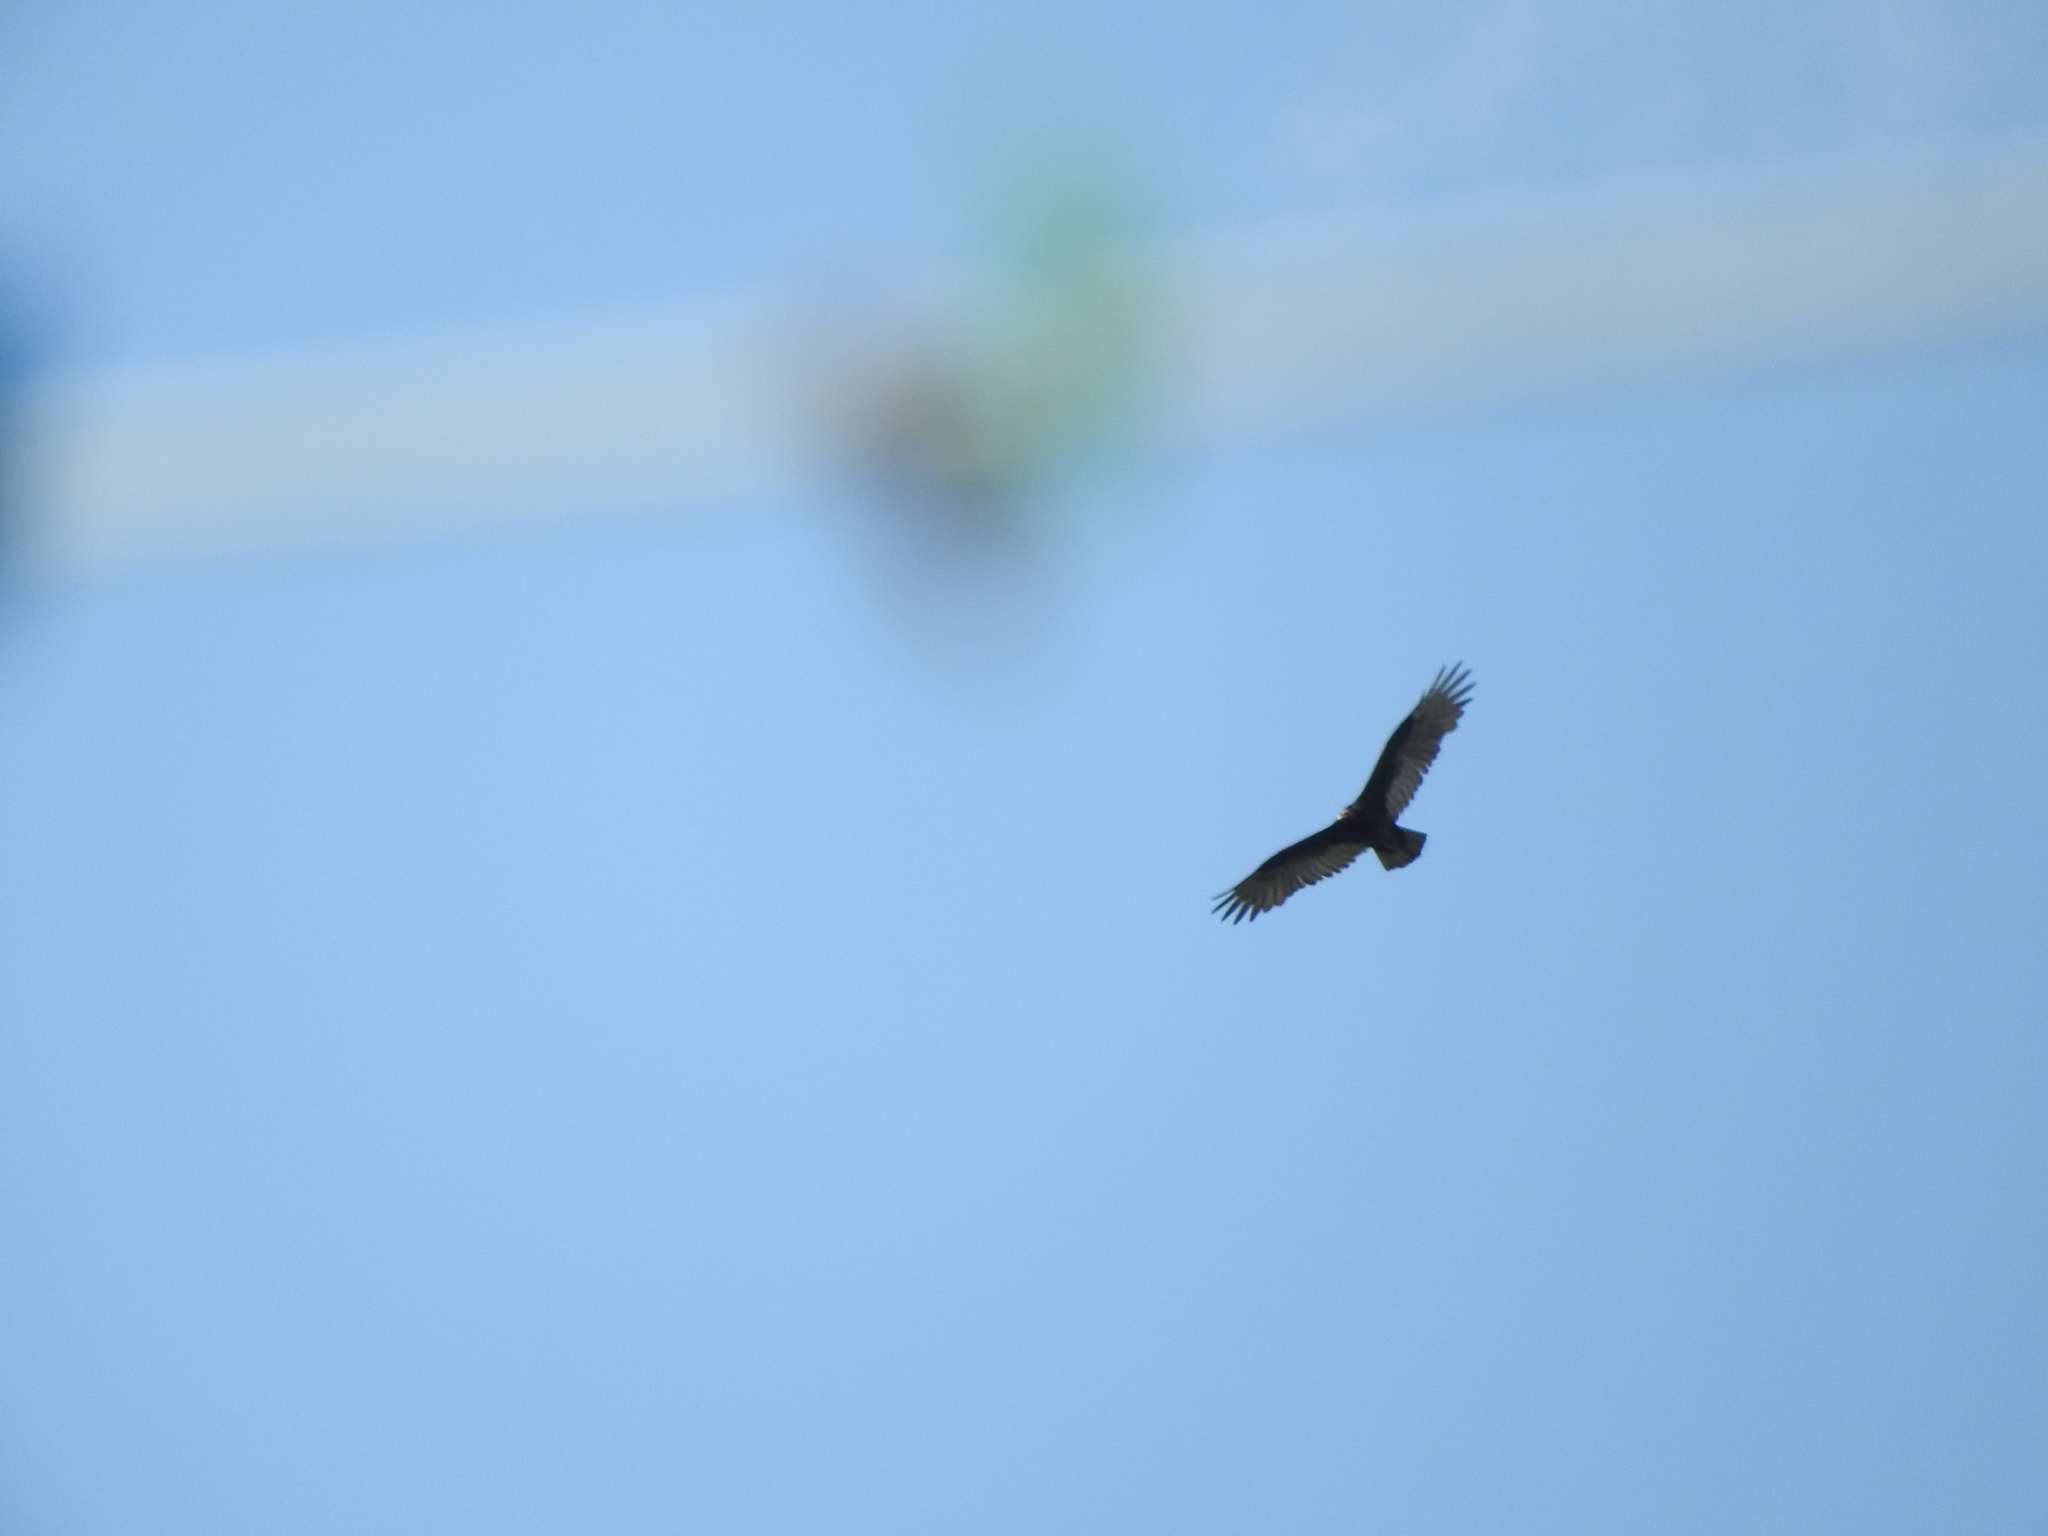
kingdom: Animalia
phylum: Chordata
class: Aves
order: Accipitriformes
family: Cathartidae
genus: Cathartes
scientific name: Cathartes aura
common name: Turkey vulture
